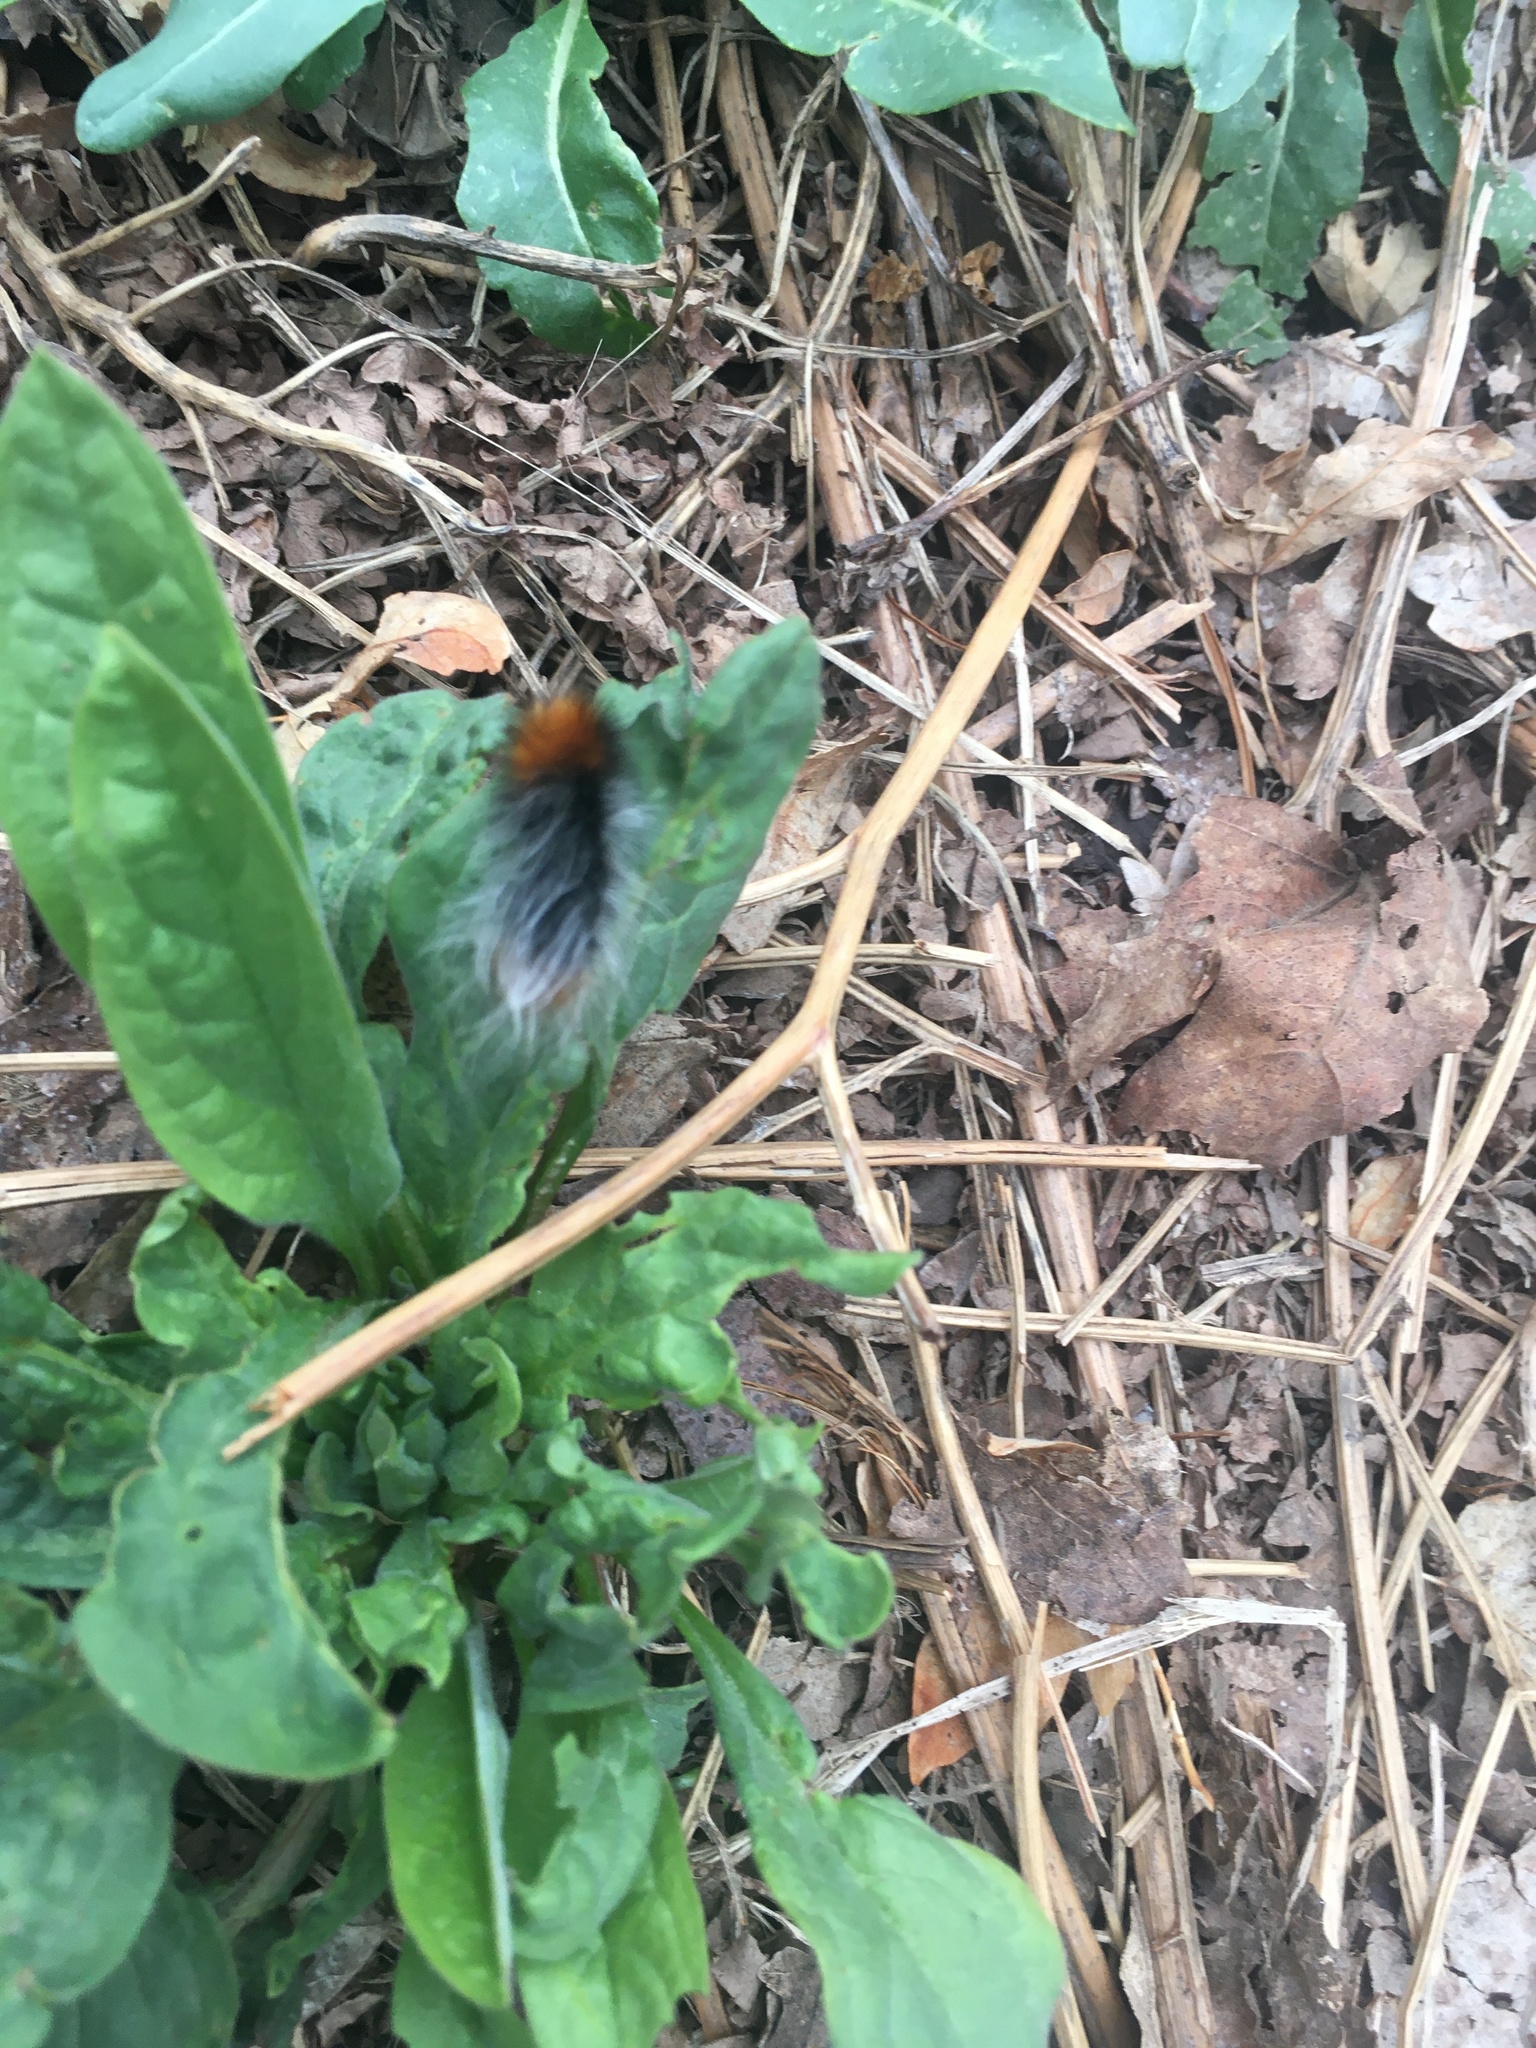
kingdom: Animalia
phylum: Arthropoda
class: Insecta
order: Lepidoptera
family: Erebidae
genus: Arctia
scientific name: Arctia tigrina
